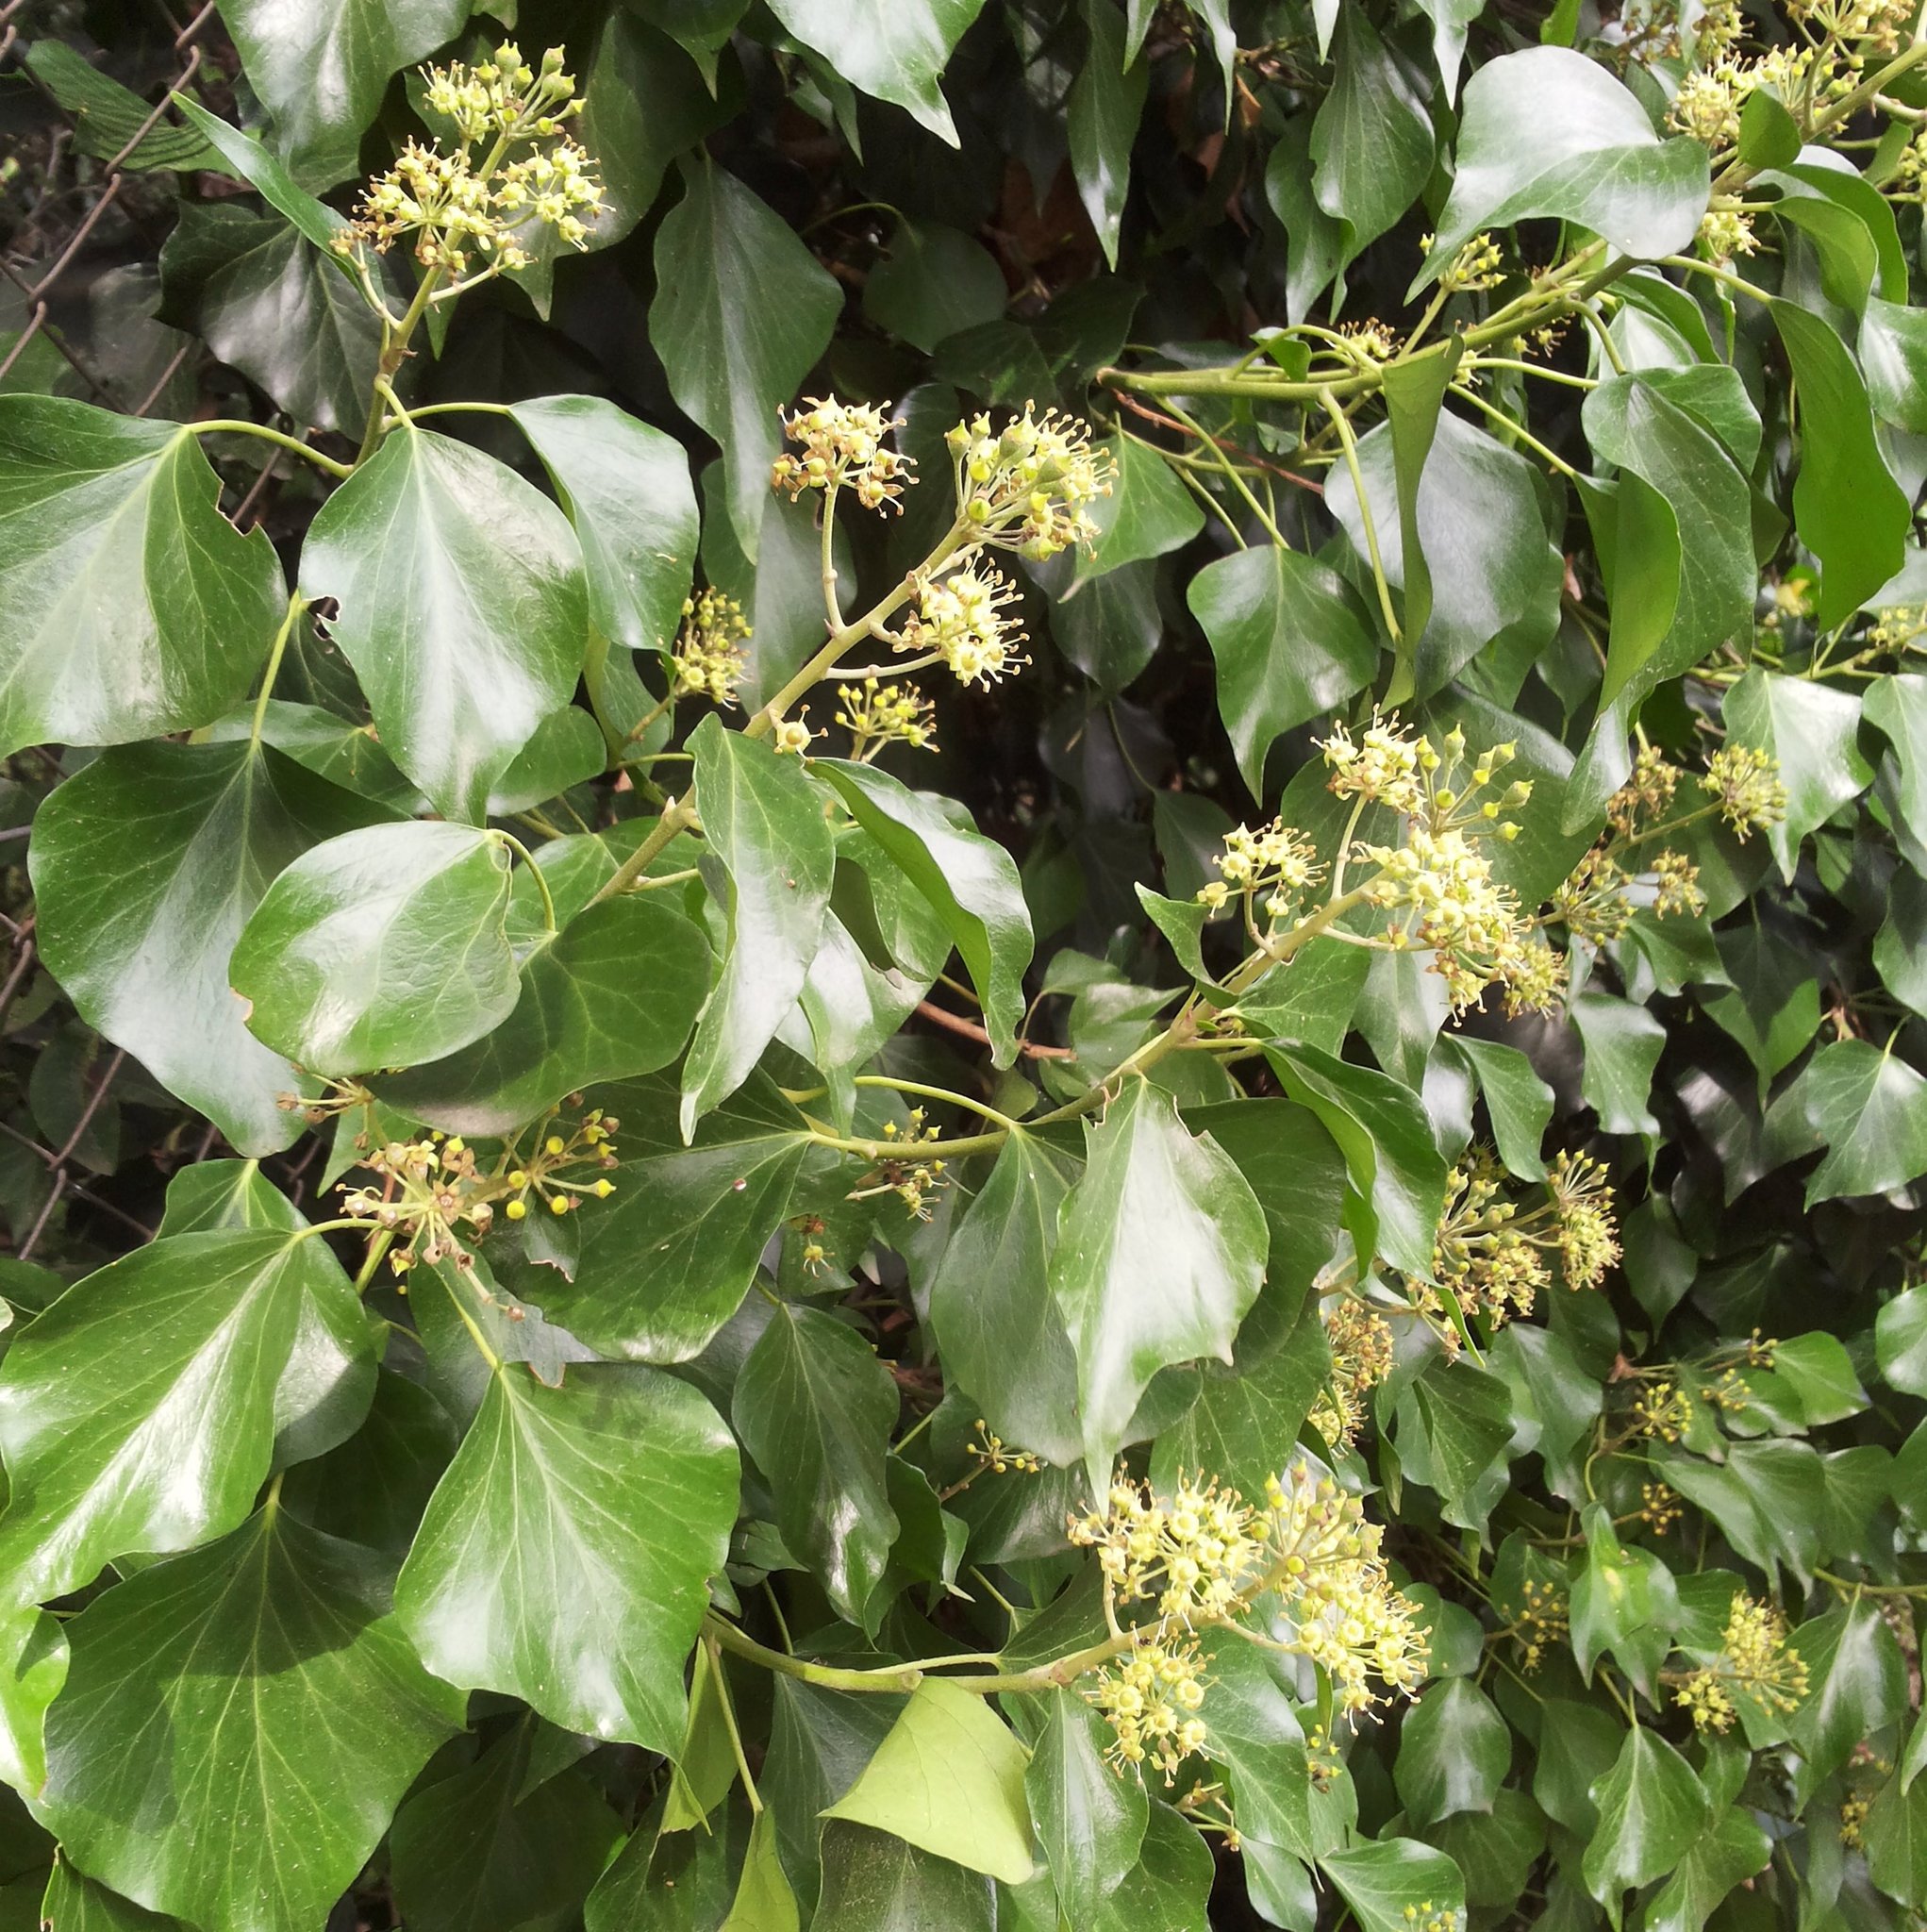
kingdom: Plantae
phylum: Tracheophyta
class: Magnoliopsida
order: Apiales
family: Araliaceae
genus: Hedera
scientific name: Hedera helix
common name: Ivy
